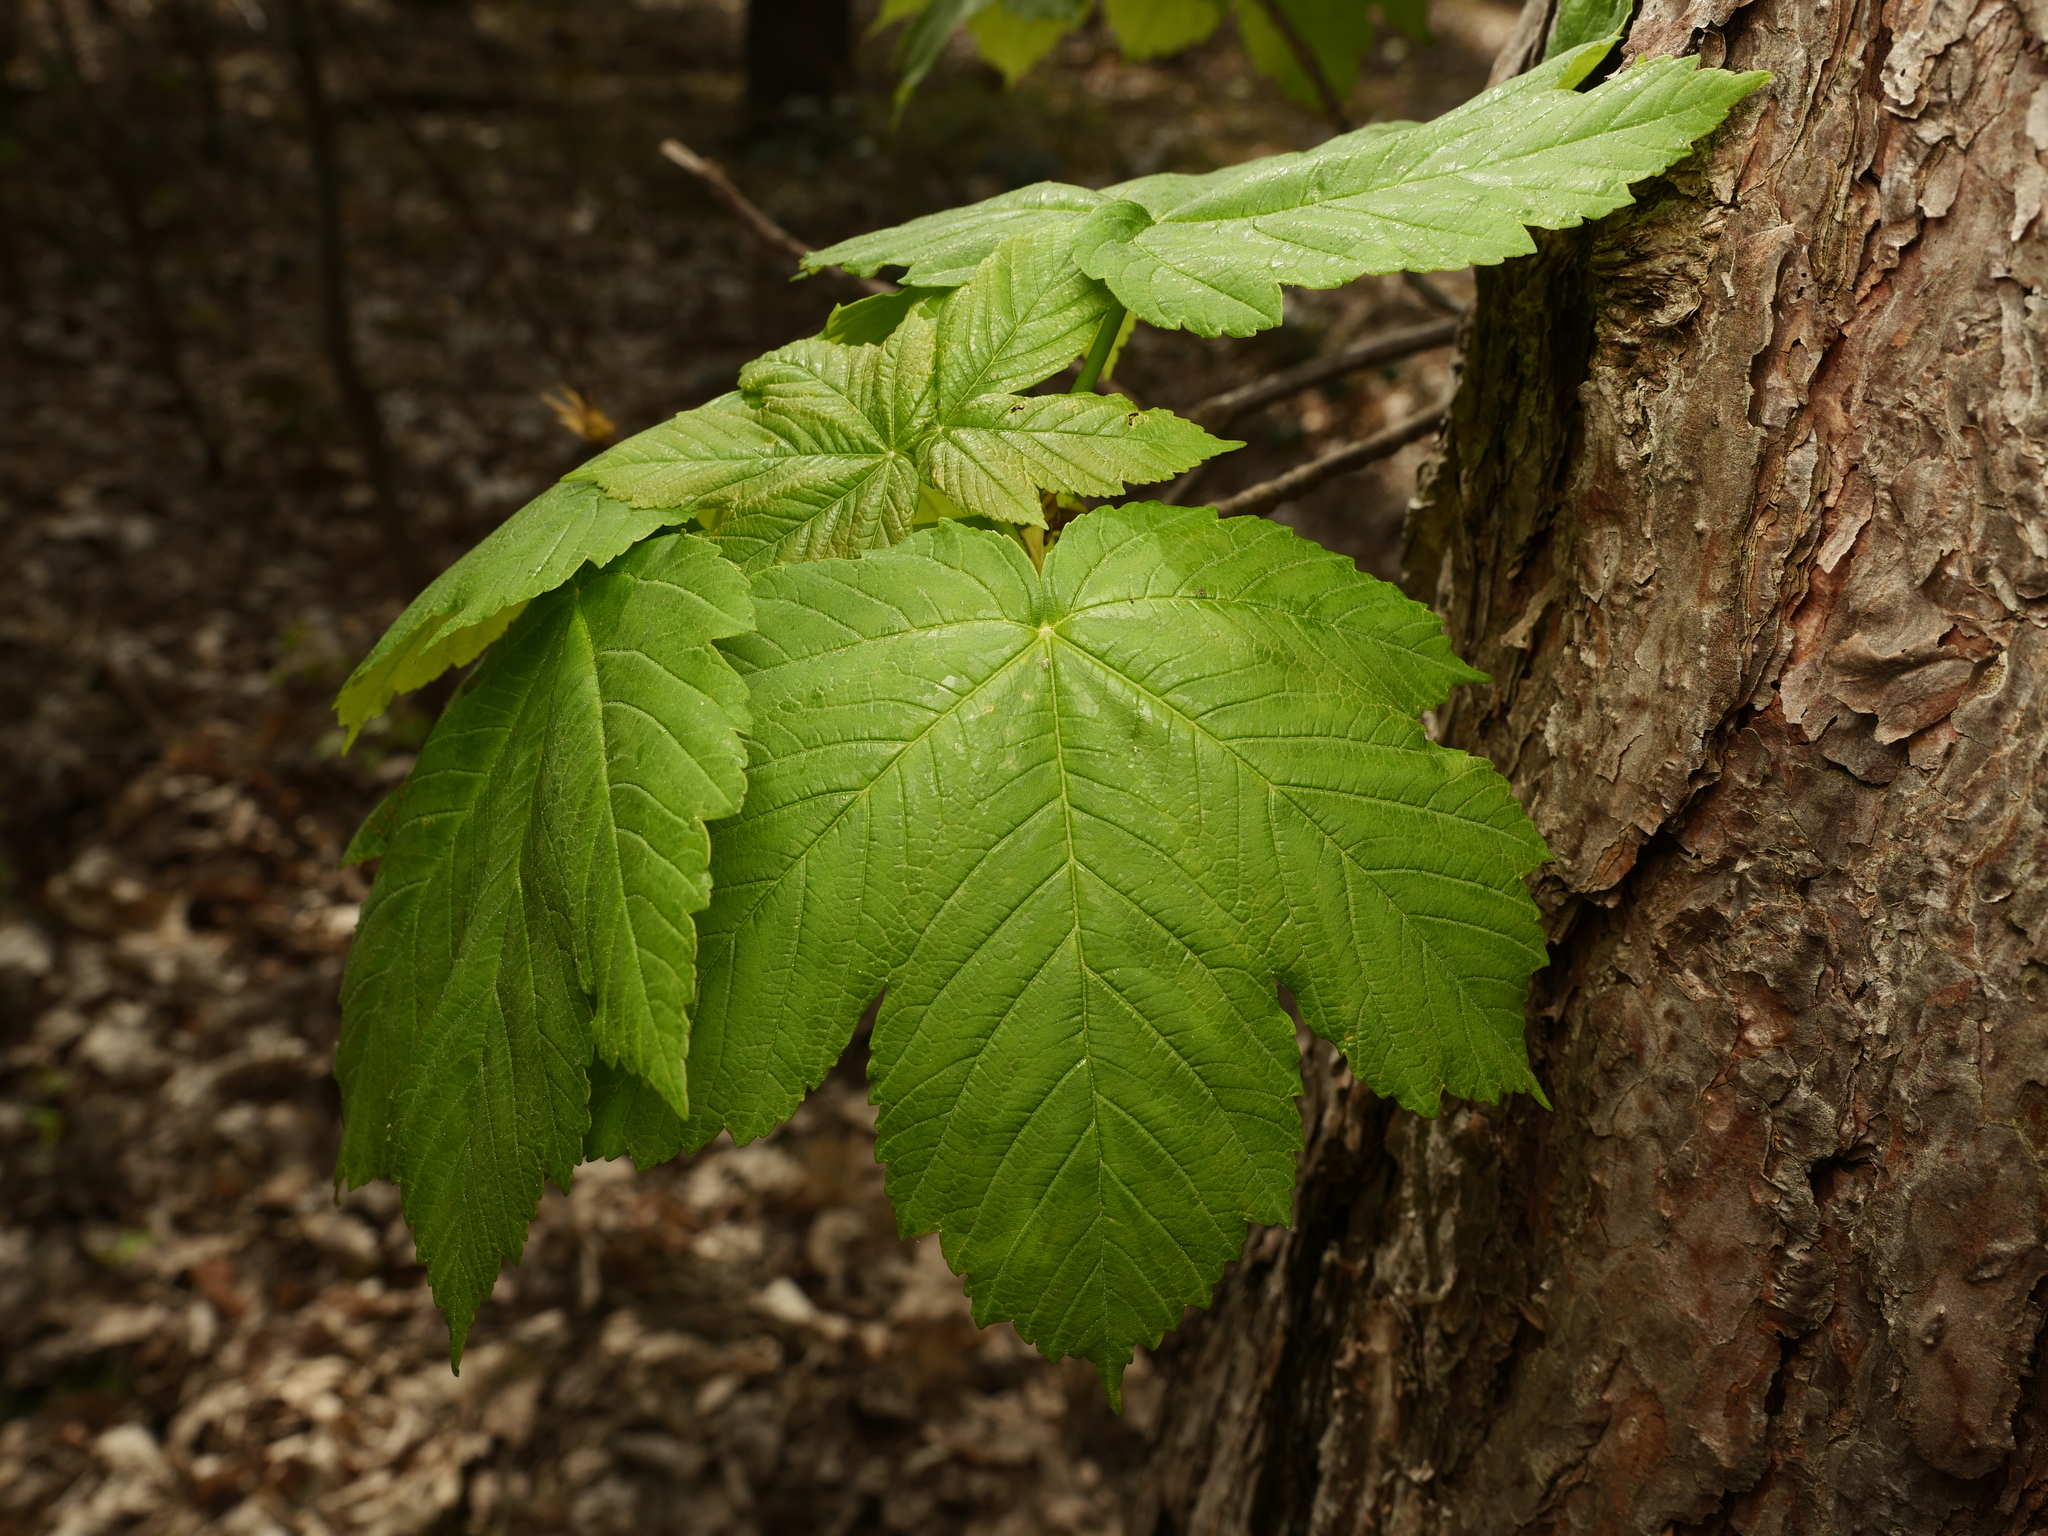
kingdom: Plantae
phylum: Tracheophyta
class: Magnoliopsida
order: Sapindales
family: Sapindaceae
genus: Acer
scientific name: Acer pseudoplatanus
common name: Sycamore
